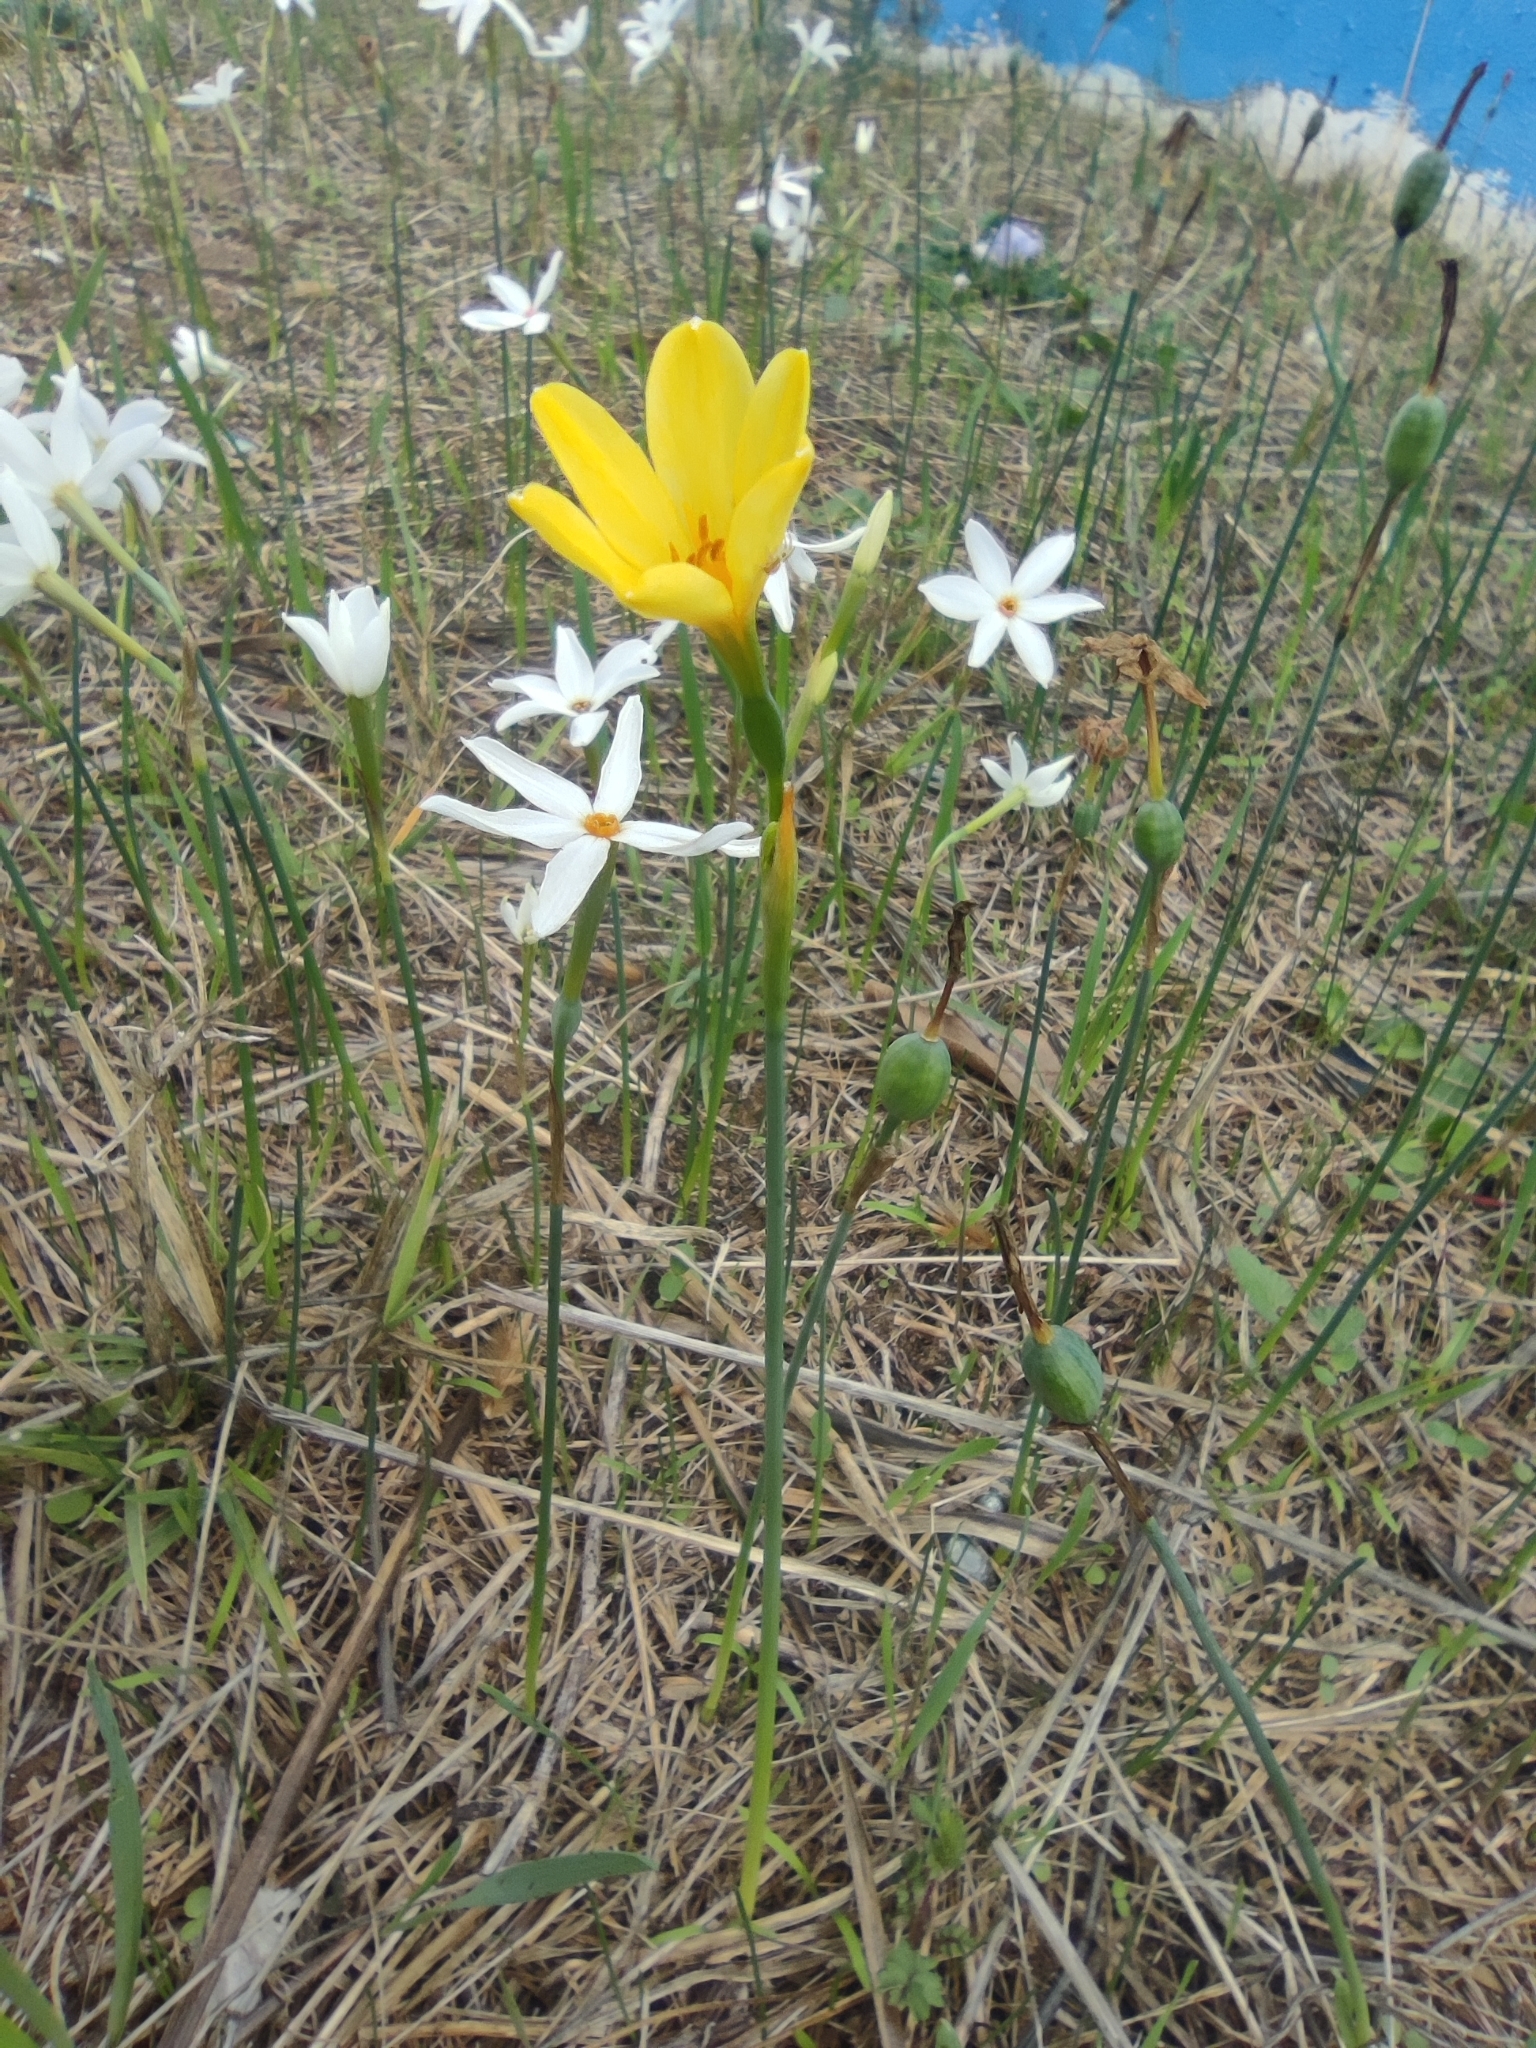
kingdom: Plantae
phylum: Tracheophyta
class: Liliopsida
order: Asparagales
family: Amaryllidaceae
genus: Narcissus
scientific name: Narcissus perezlarae
